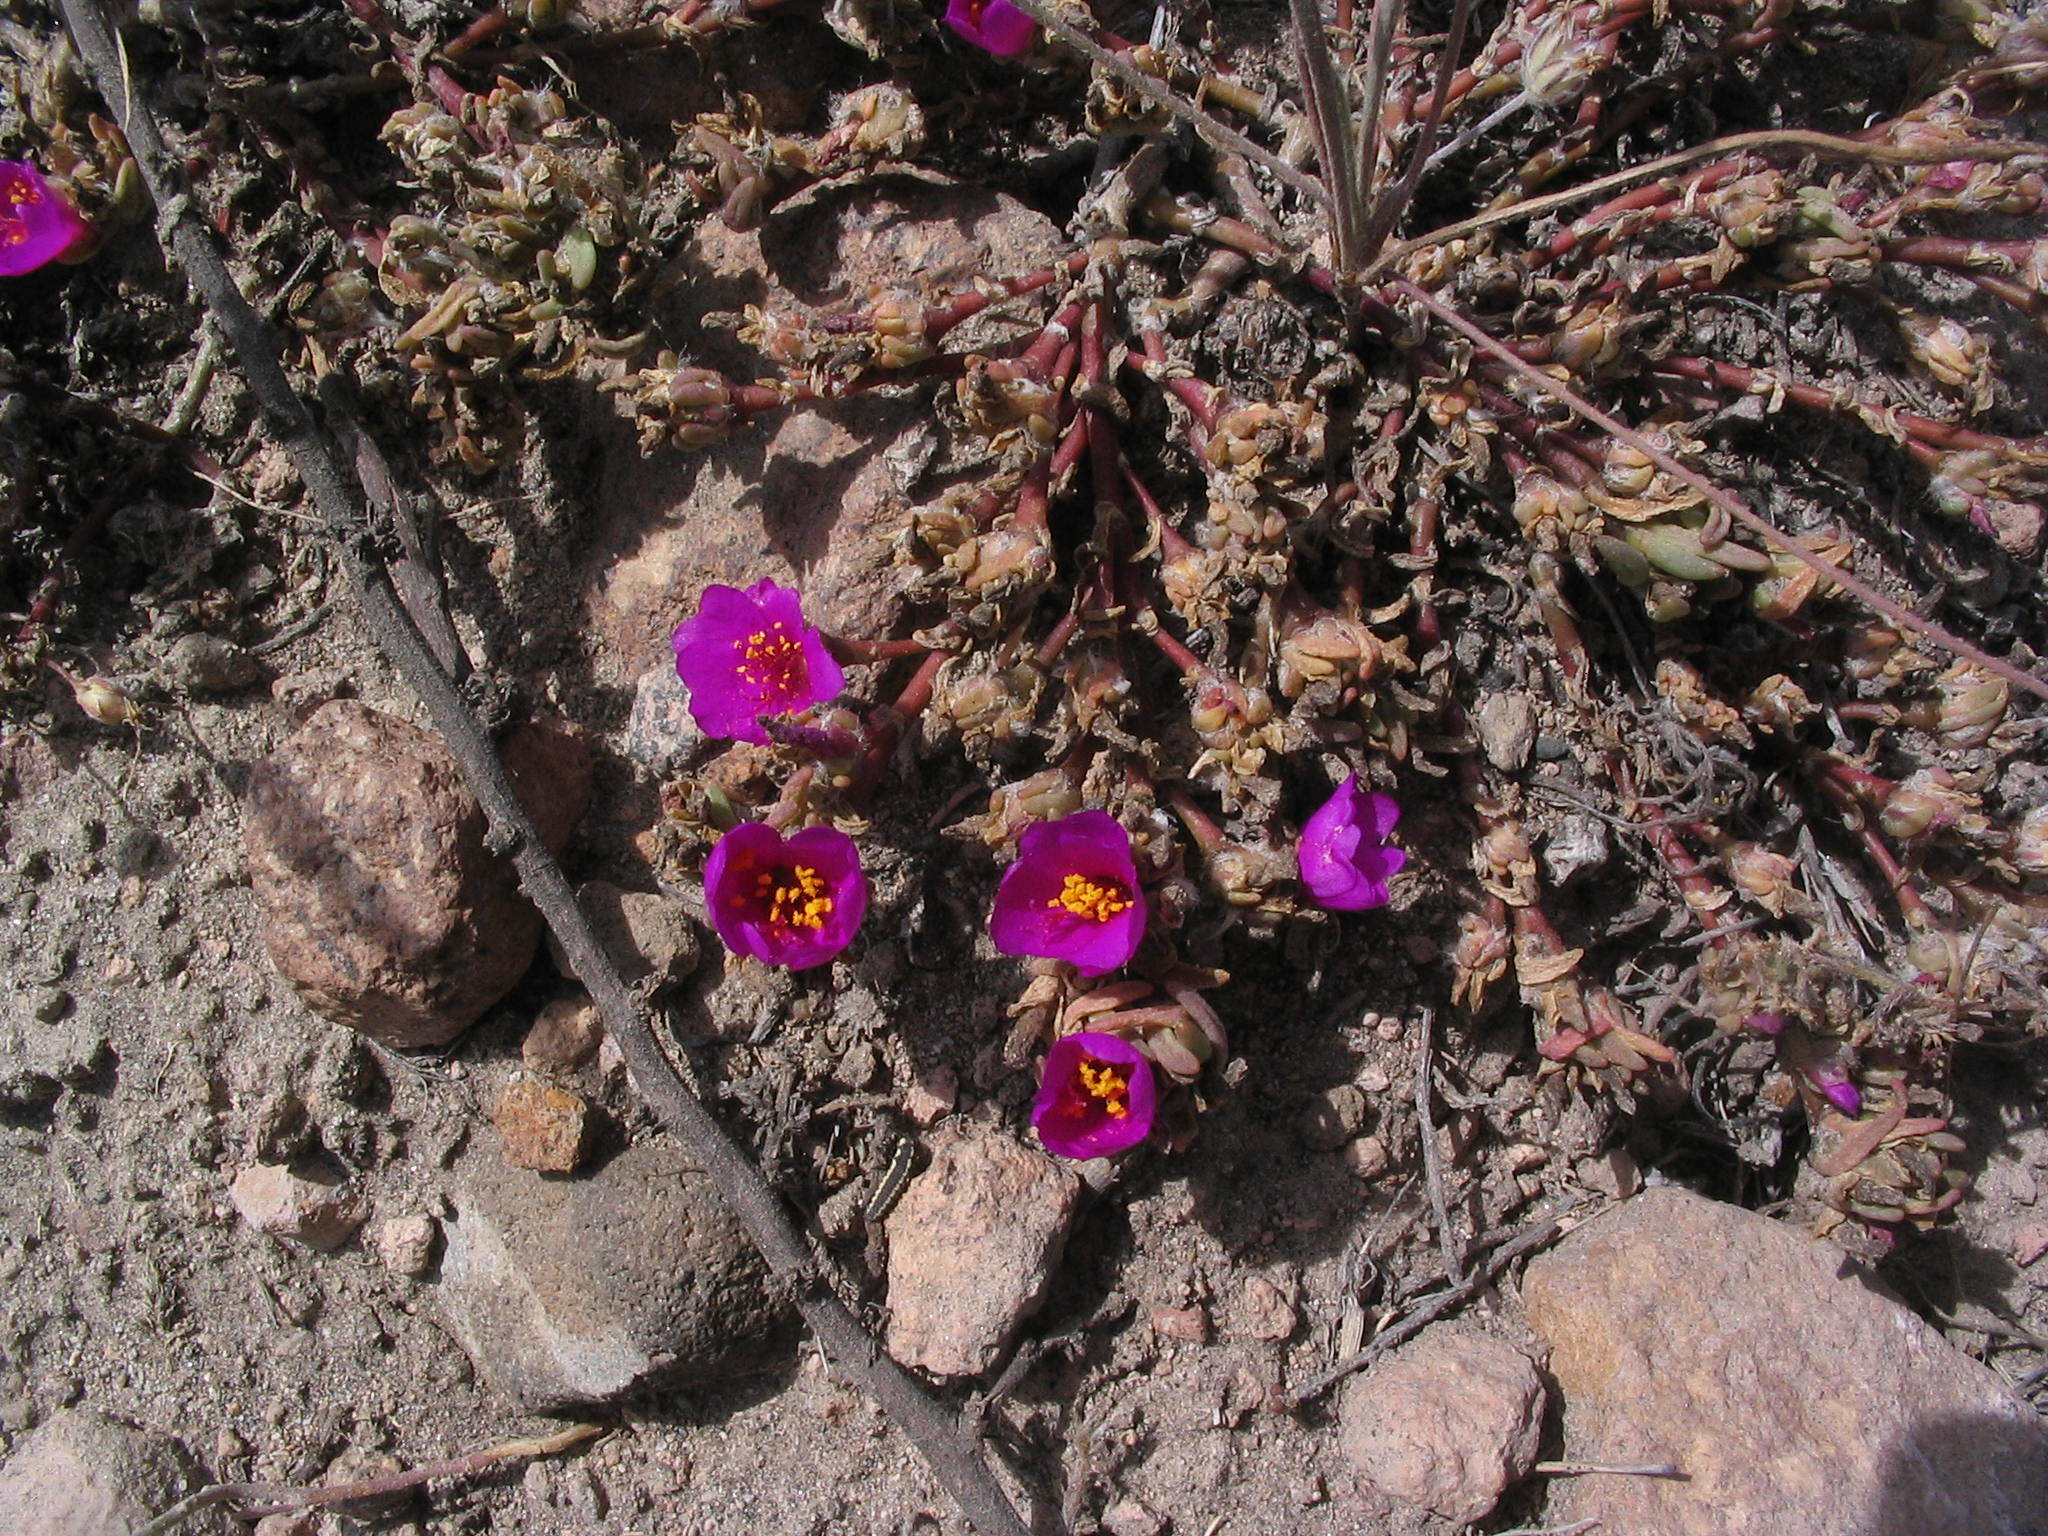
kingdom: Plantae
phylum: Tracheophyta
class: Magnoliopsida
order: Caryophyllales
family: Portulacaceae
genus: Portulaca
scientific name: Portulaca pilosa
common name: Kiss me quick
